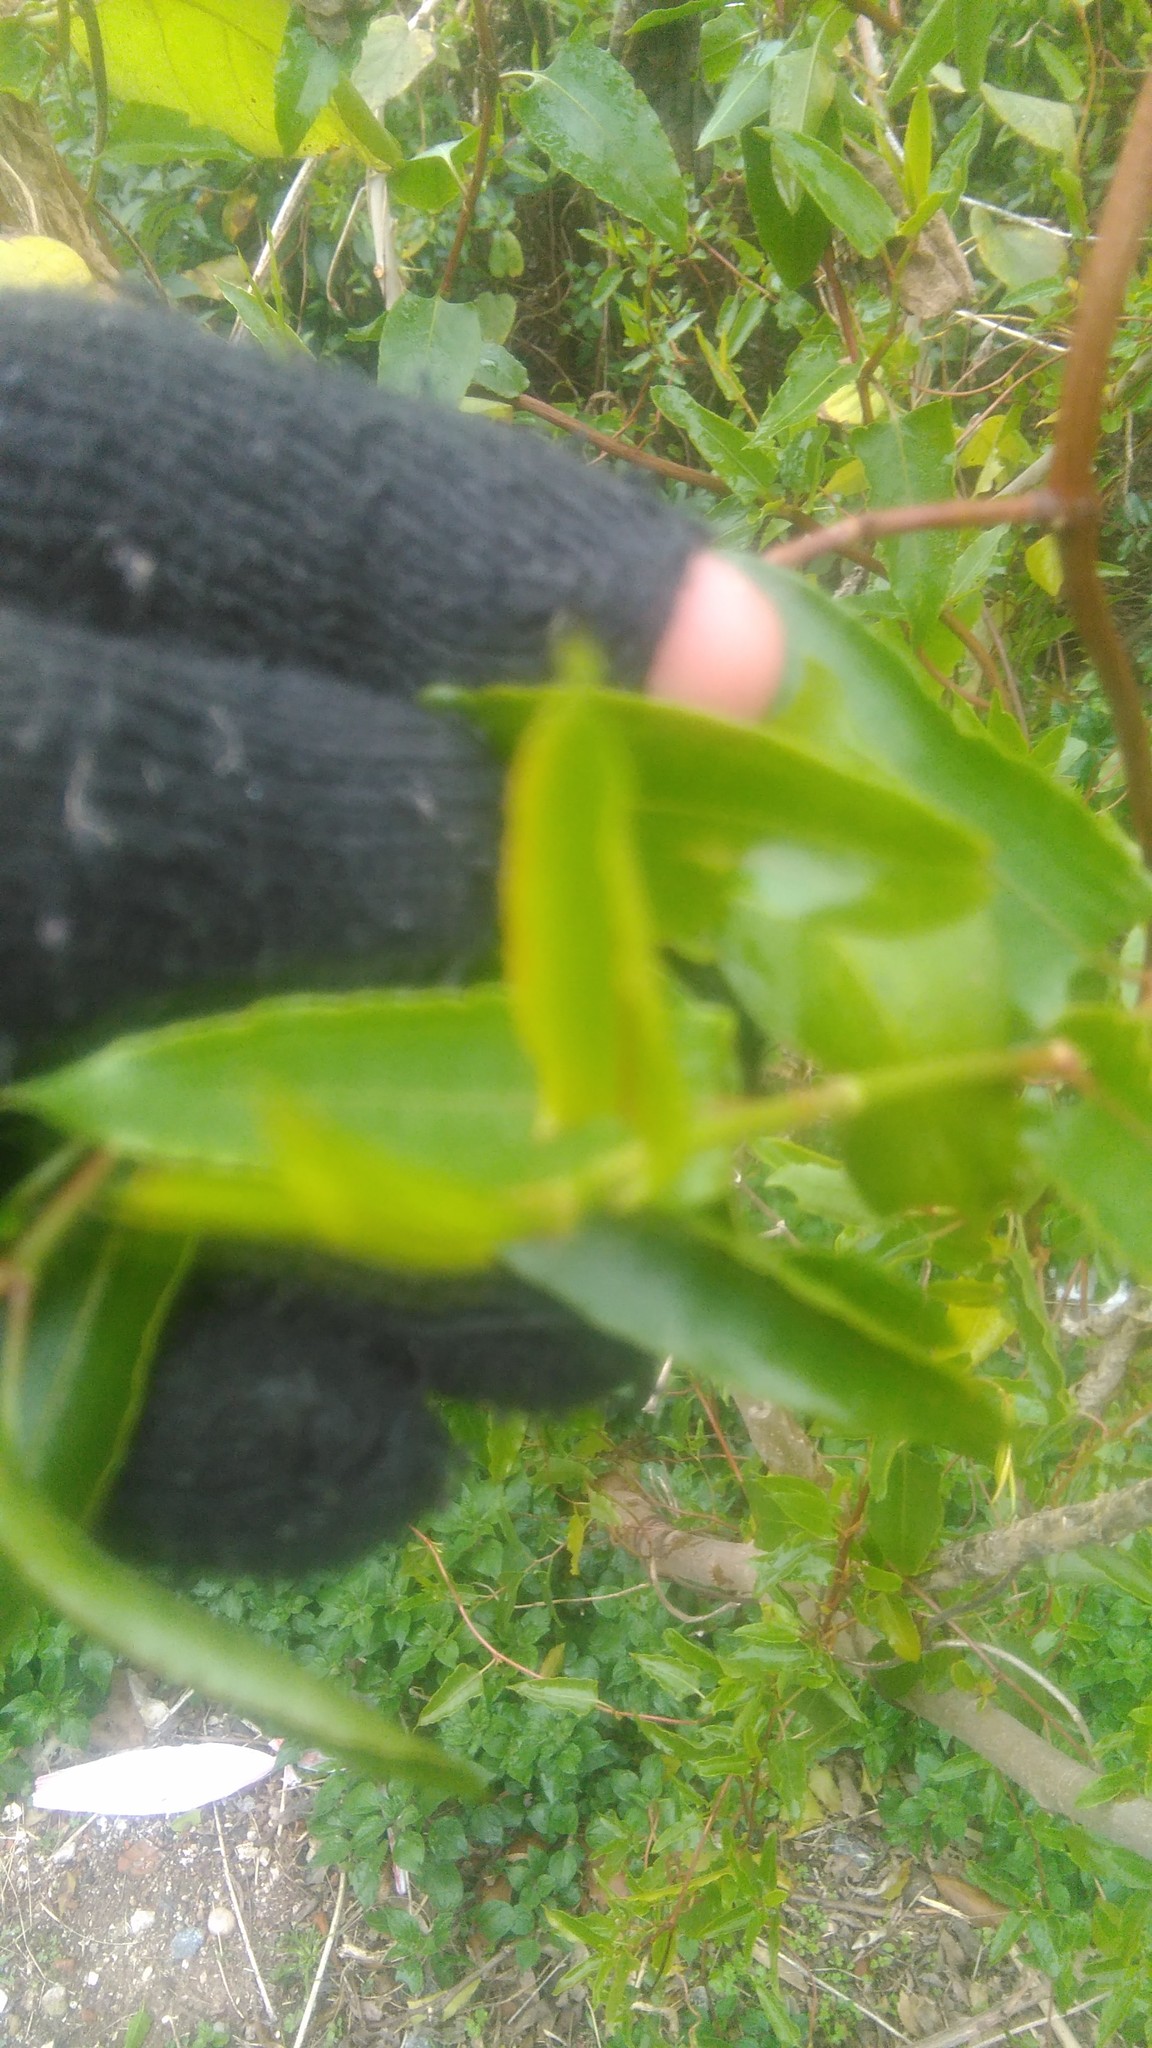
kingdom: Plantae
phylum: Tracheophyta
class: Magnoliopsida
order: Caryophyllales
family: Polygonaceae
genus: Muehlenbeckia
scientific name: Muehlenbeckia sagittifolia
